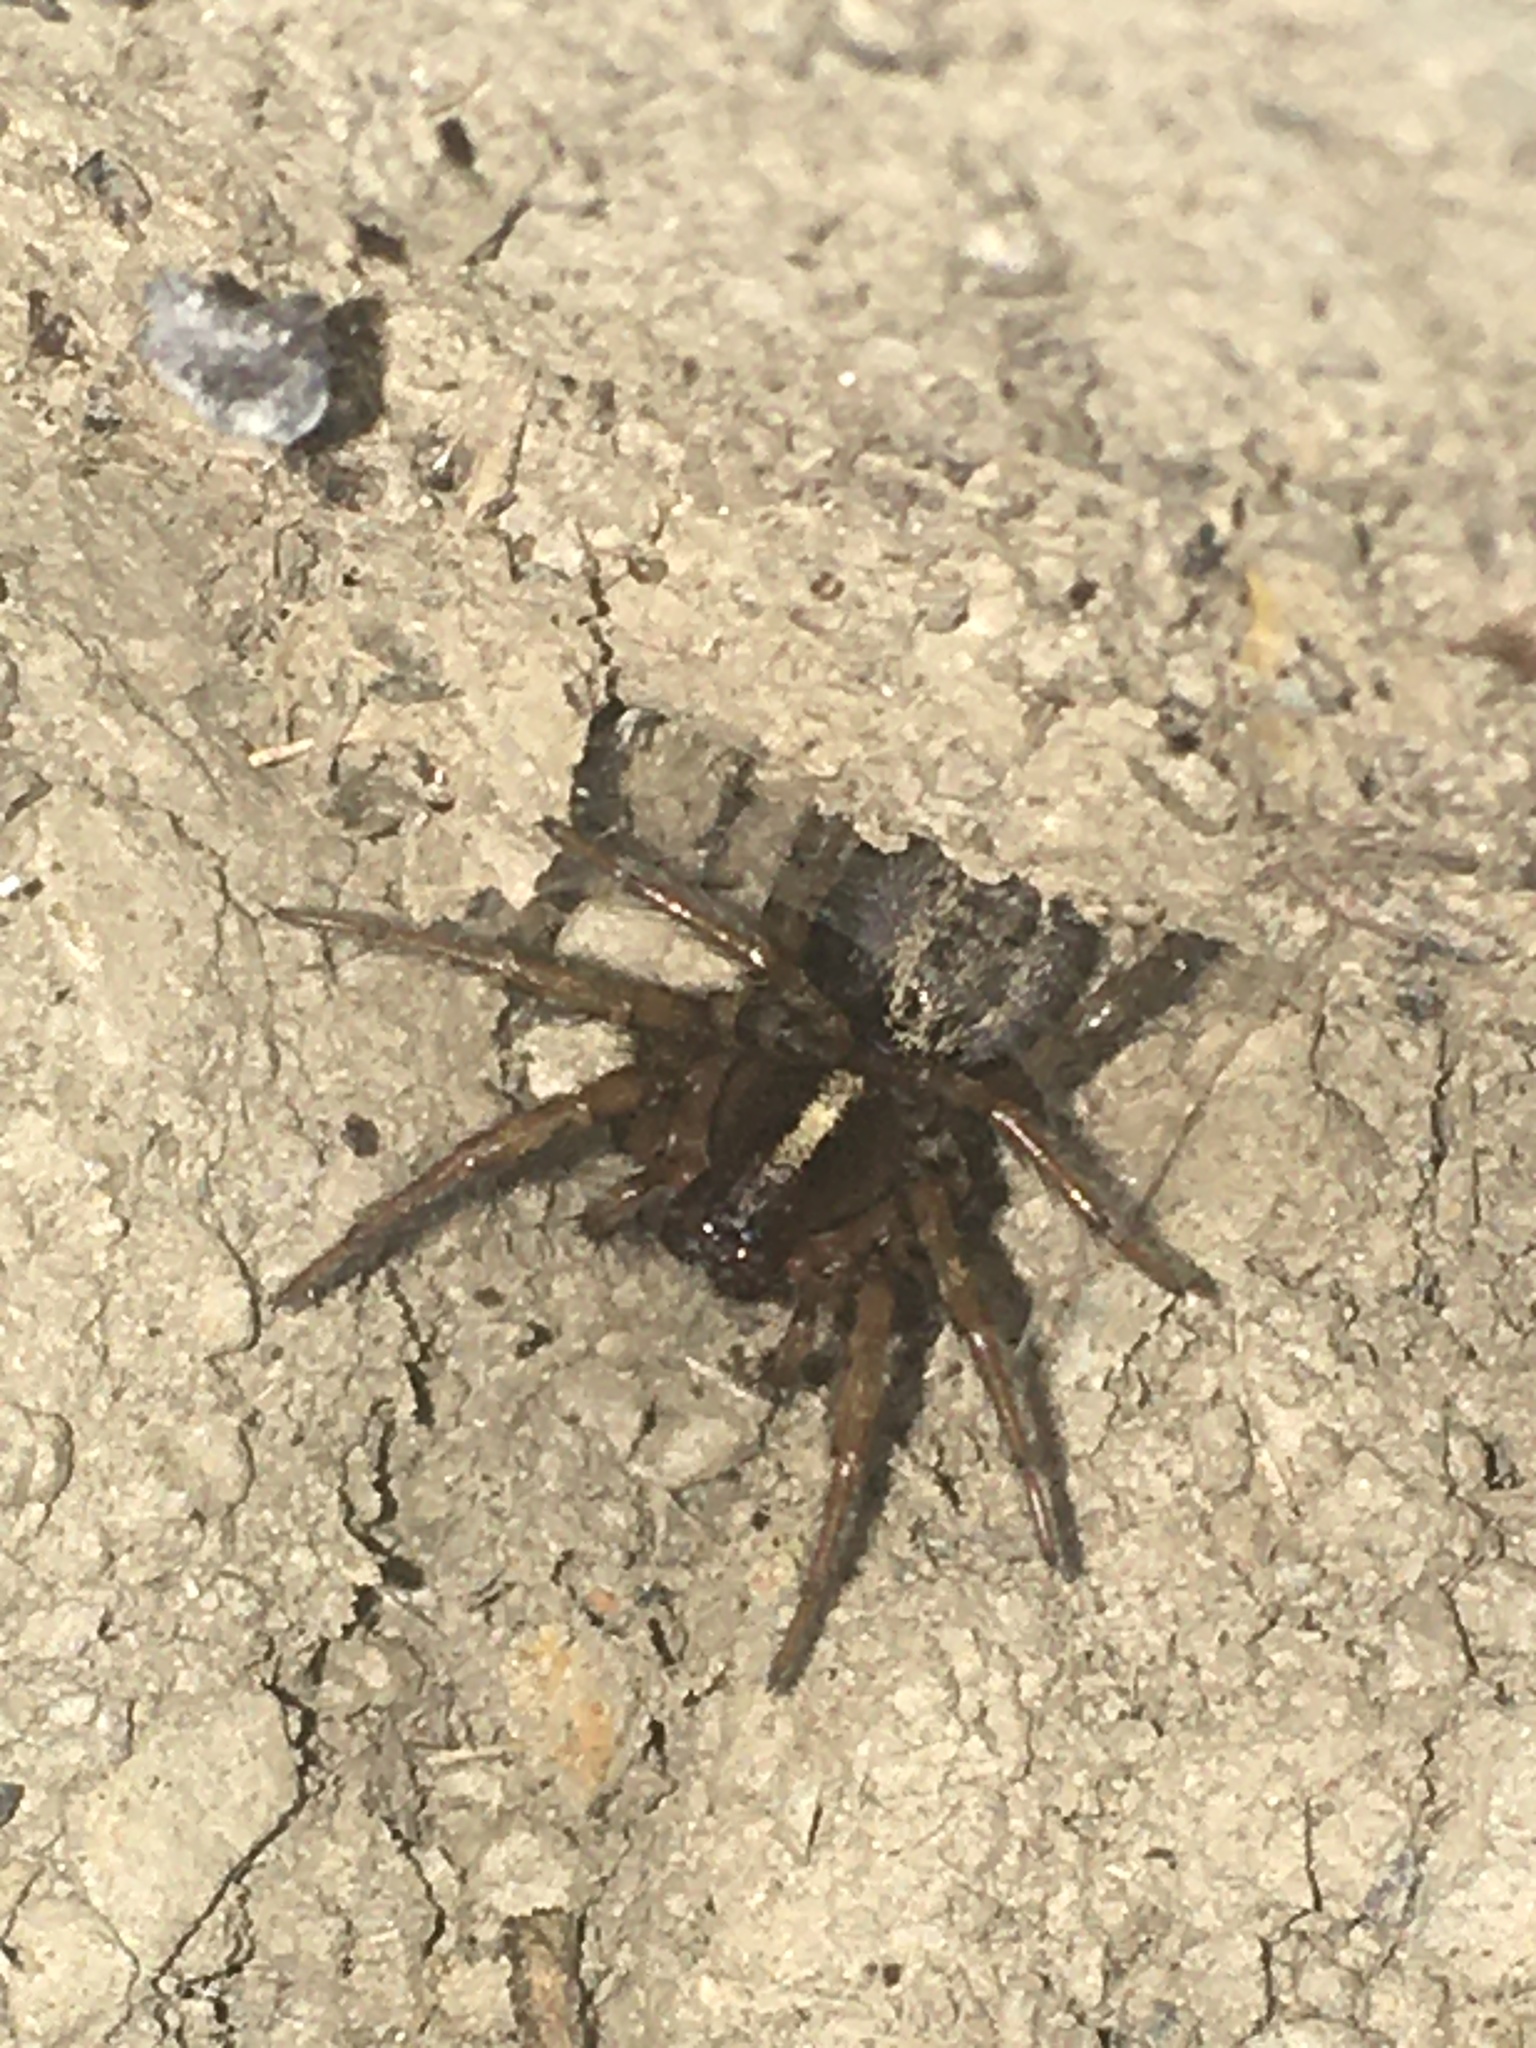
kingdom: Animalia
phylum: Arthropoda
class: Arachnida
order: Araneae
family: Agelenidae
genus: Maimuna
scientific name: Maimuna vestita
